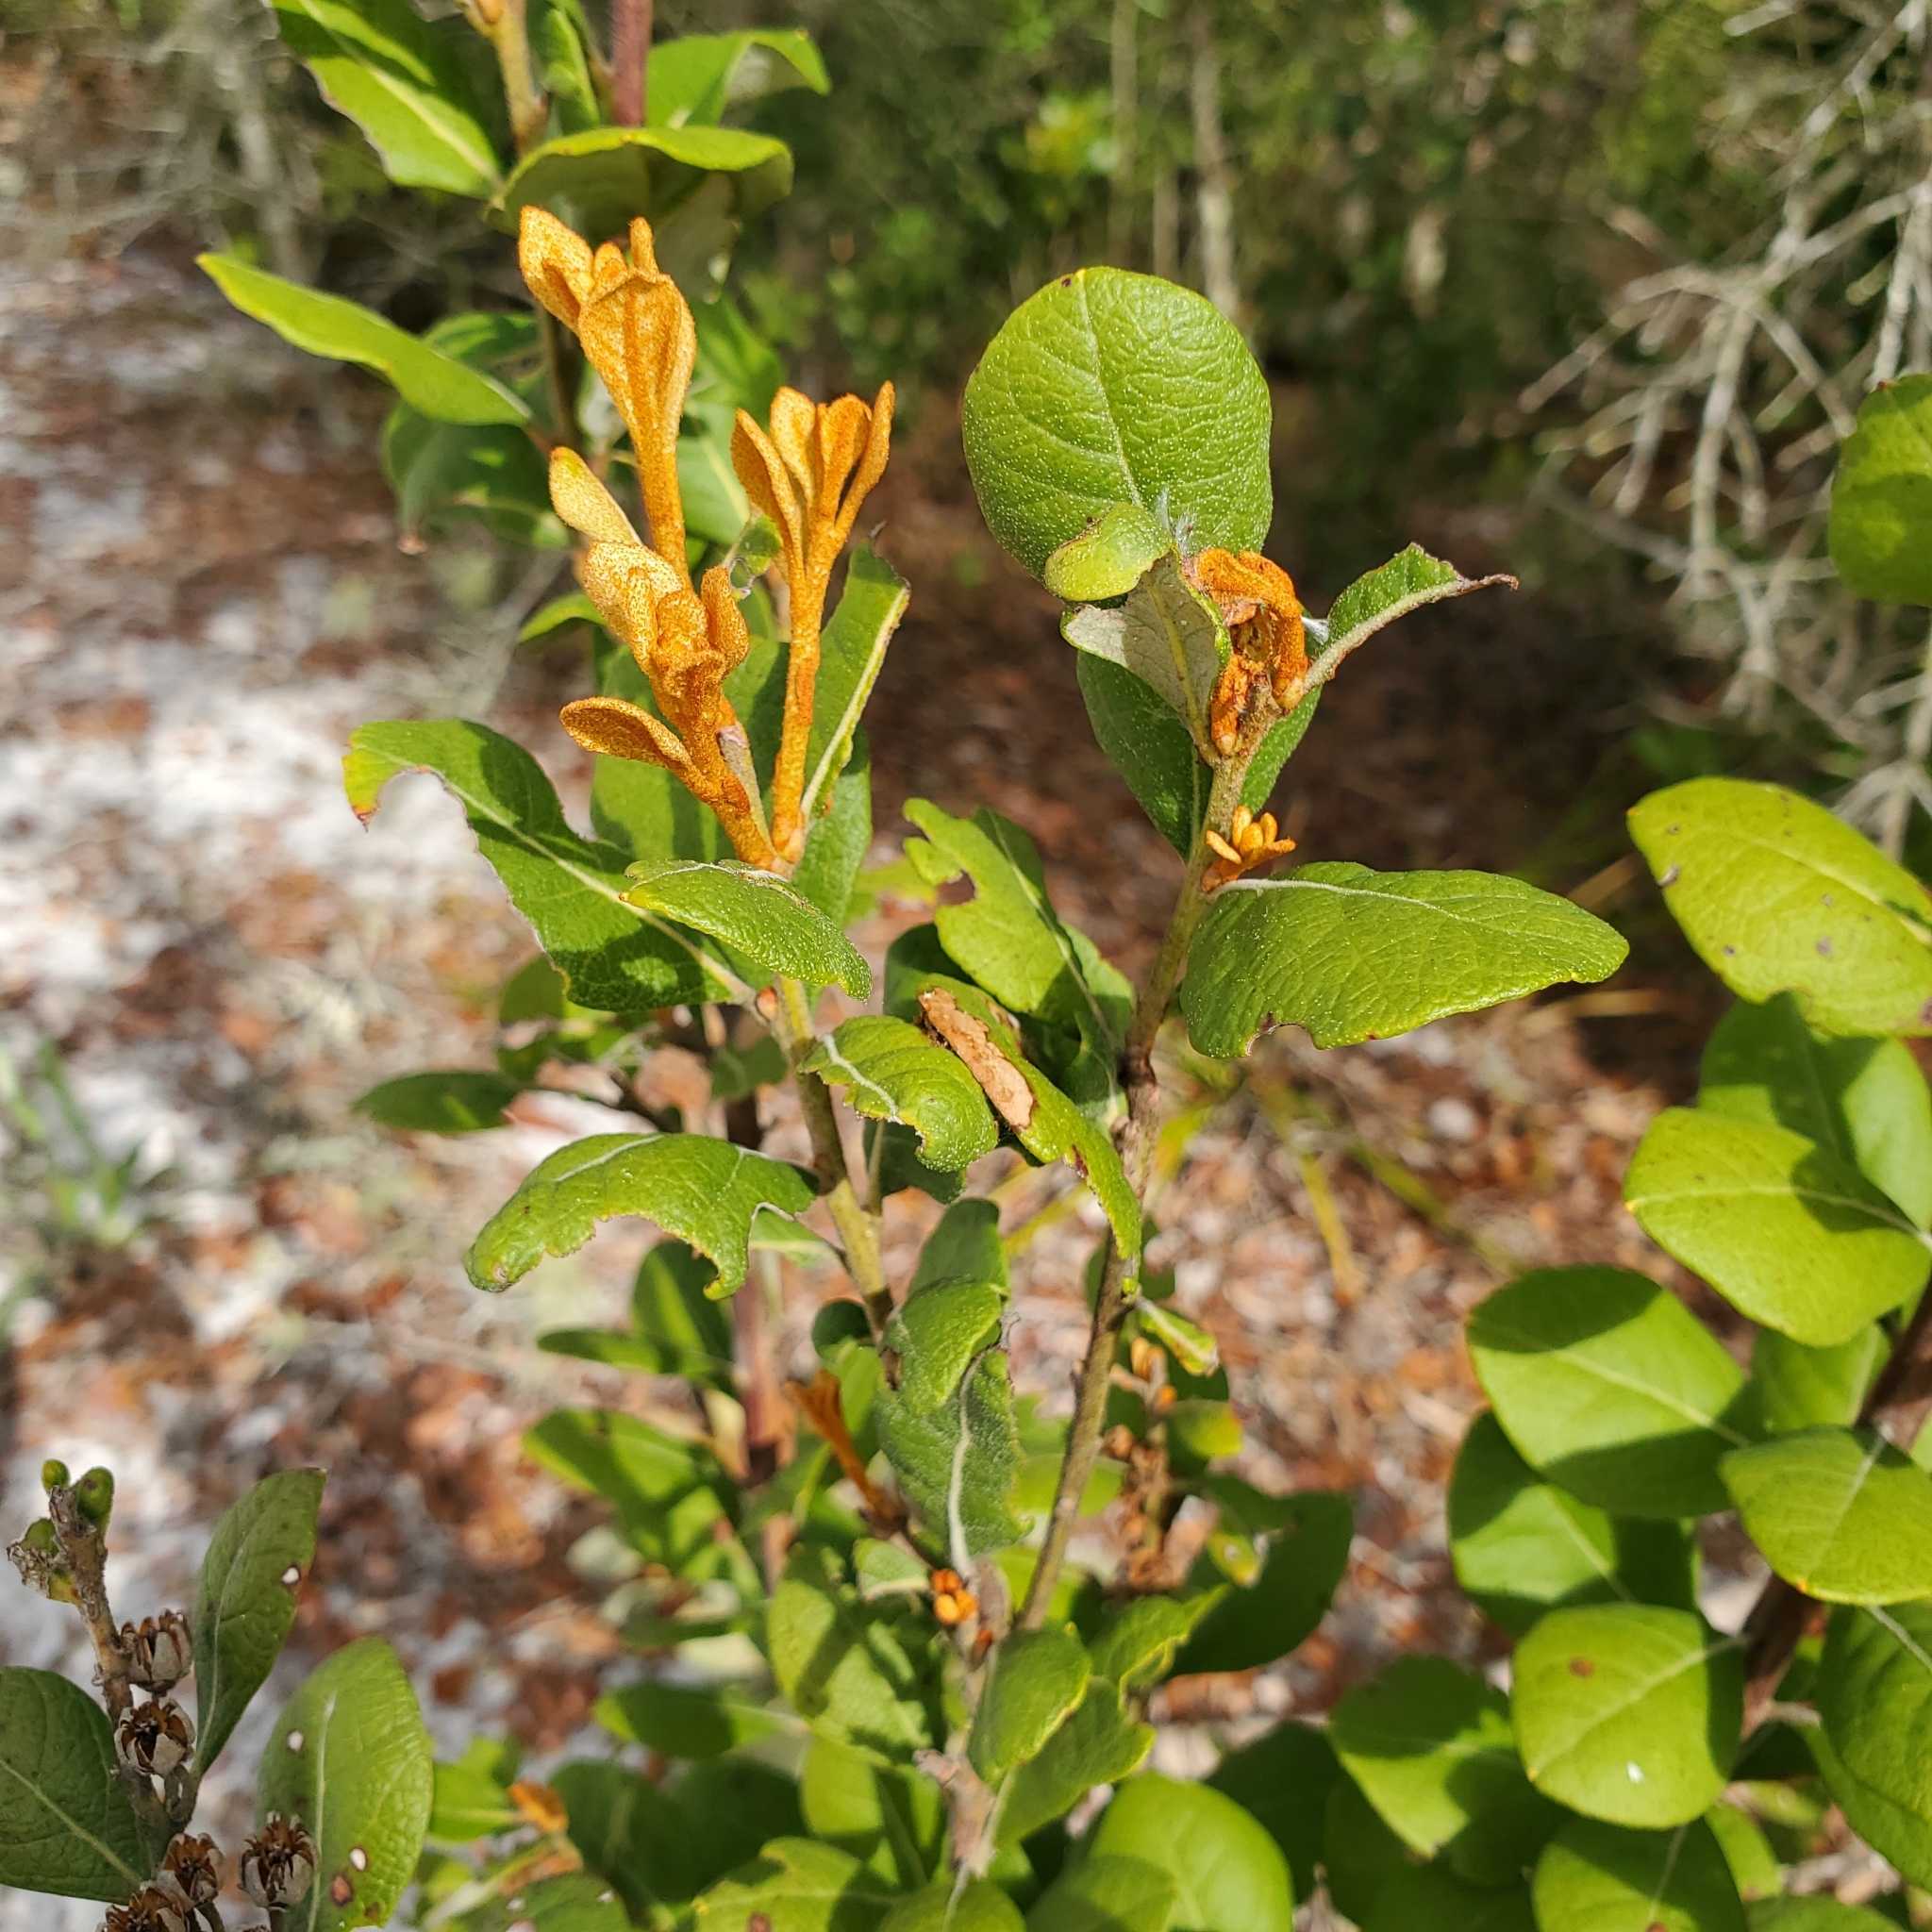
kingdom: Plantae
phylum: Tracheophyta
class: Magnoliopsida
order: Ericales
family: Ericaceae
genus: Lyonia
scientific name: Lyonia fruticosa
